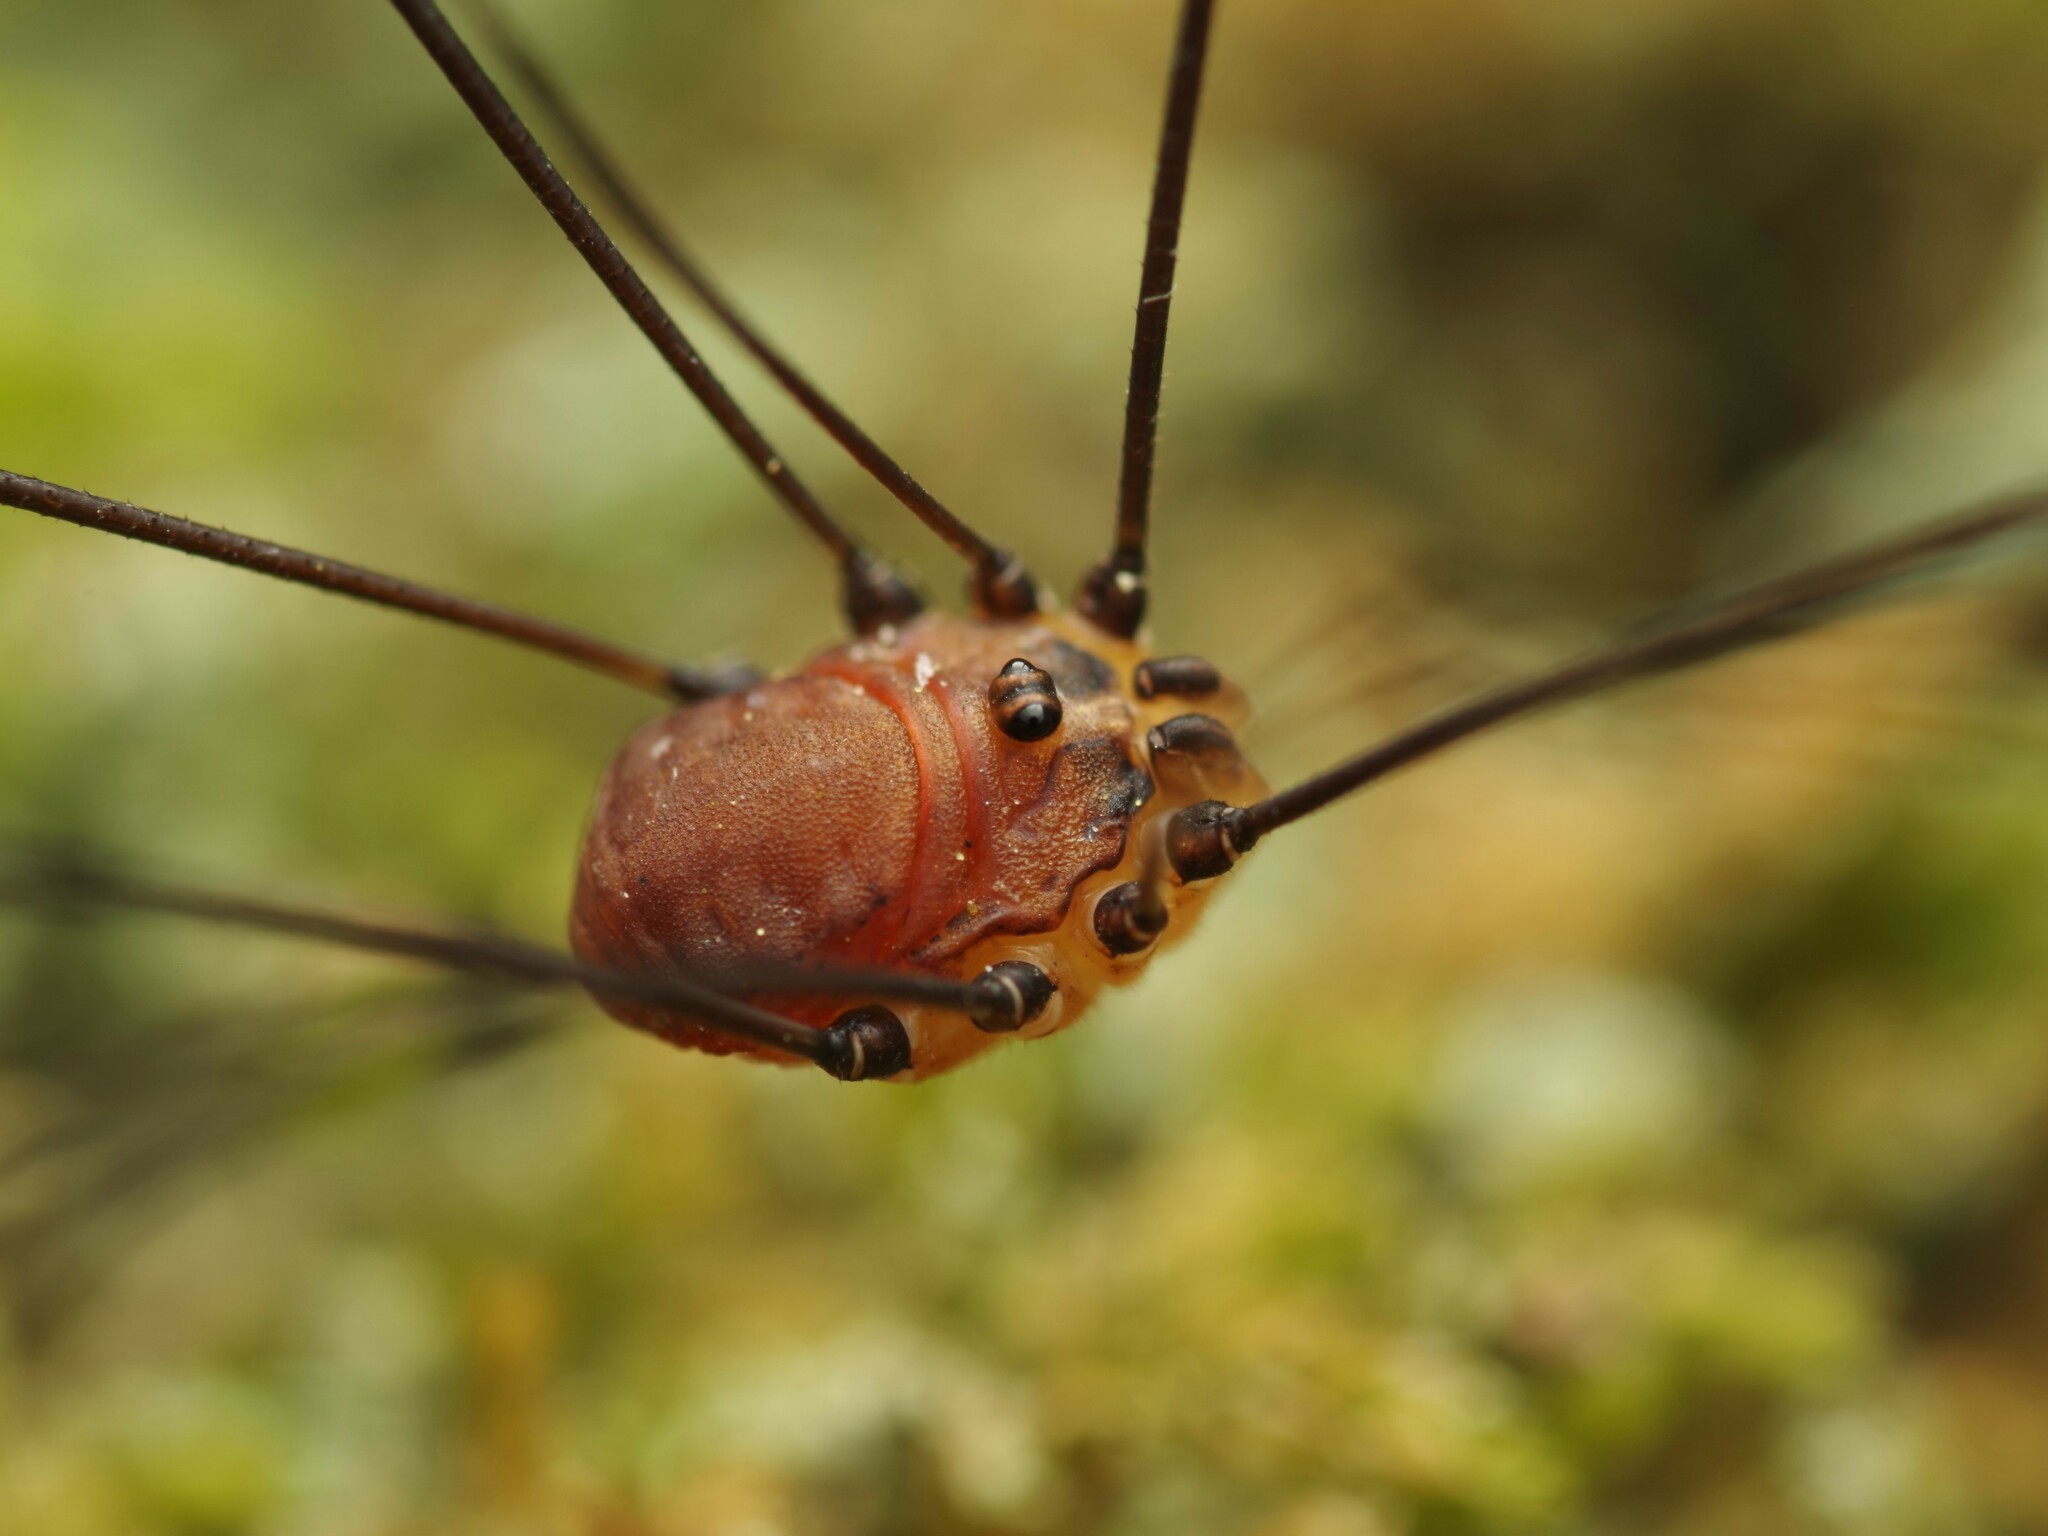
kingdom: Animalia
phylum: Arthropoda
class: Arachnida
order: Opiliones
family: Sclerosomatidae
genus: Leiobunum
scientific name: Leiobunum blackwalli
